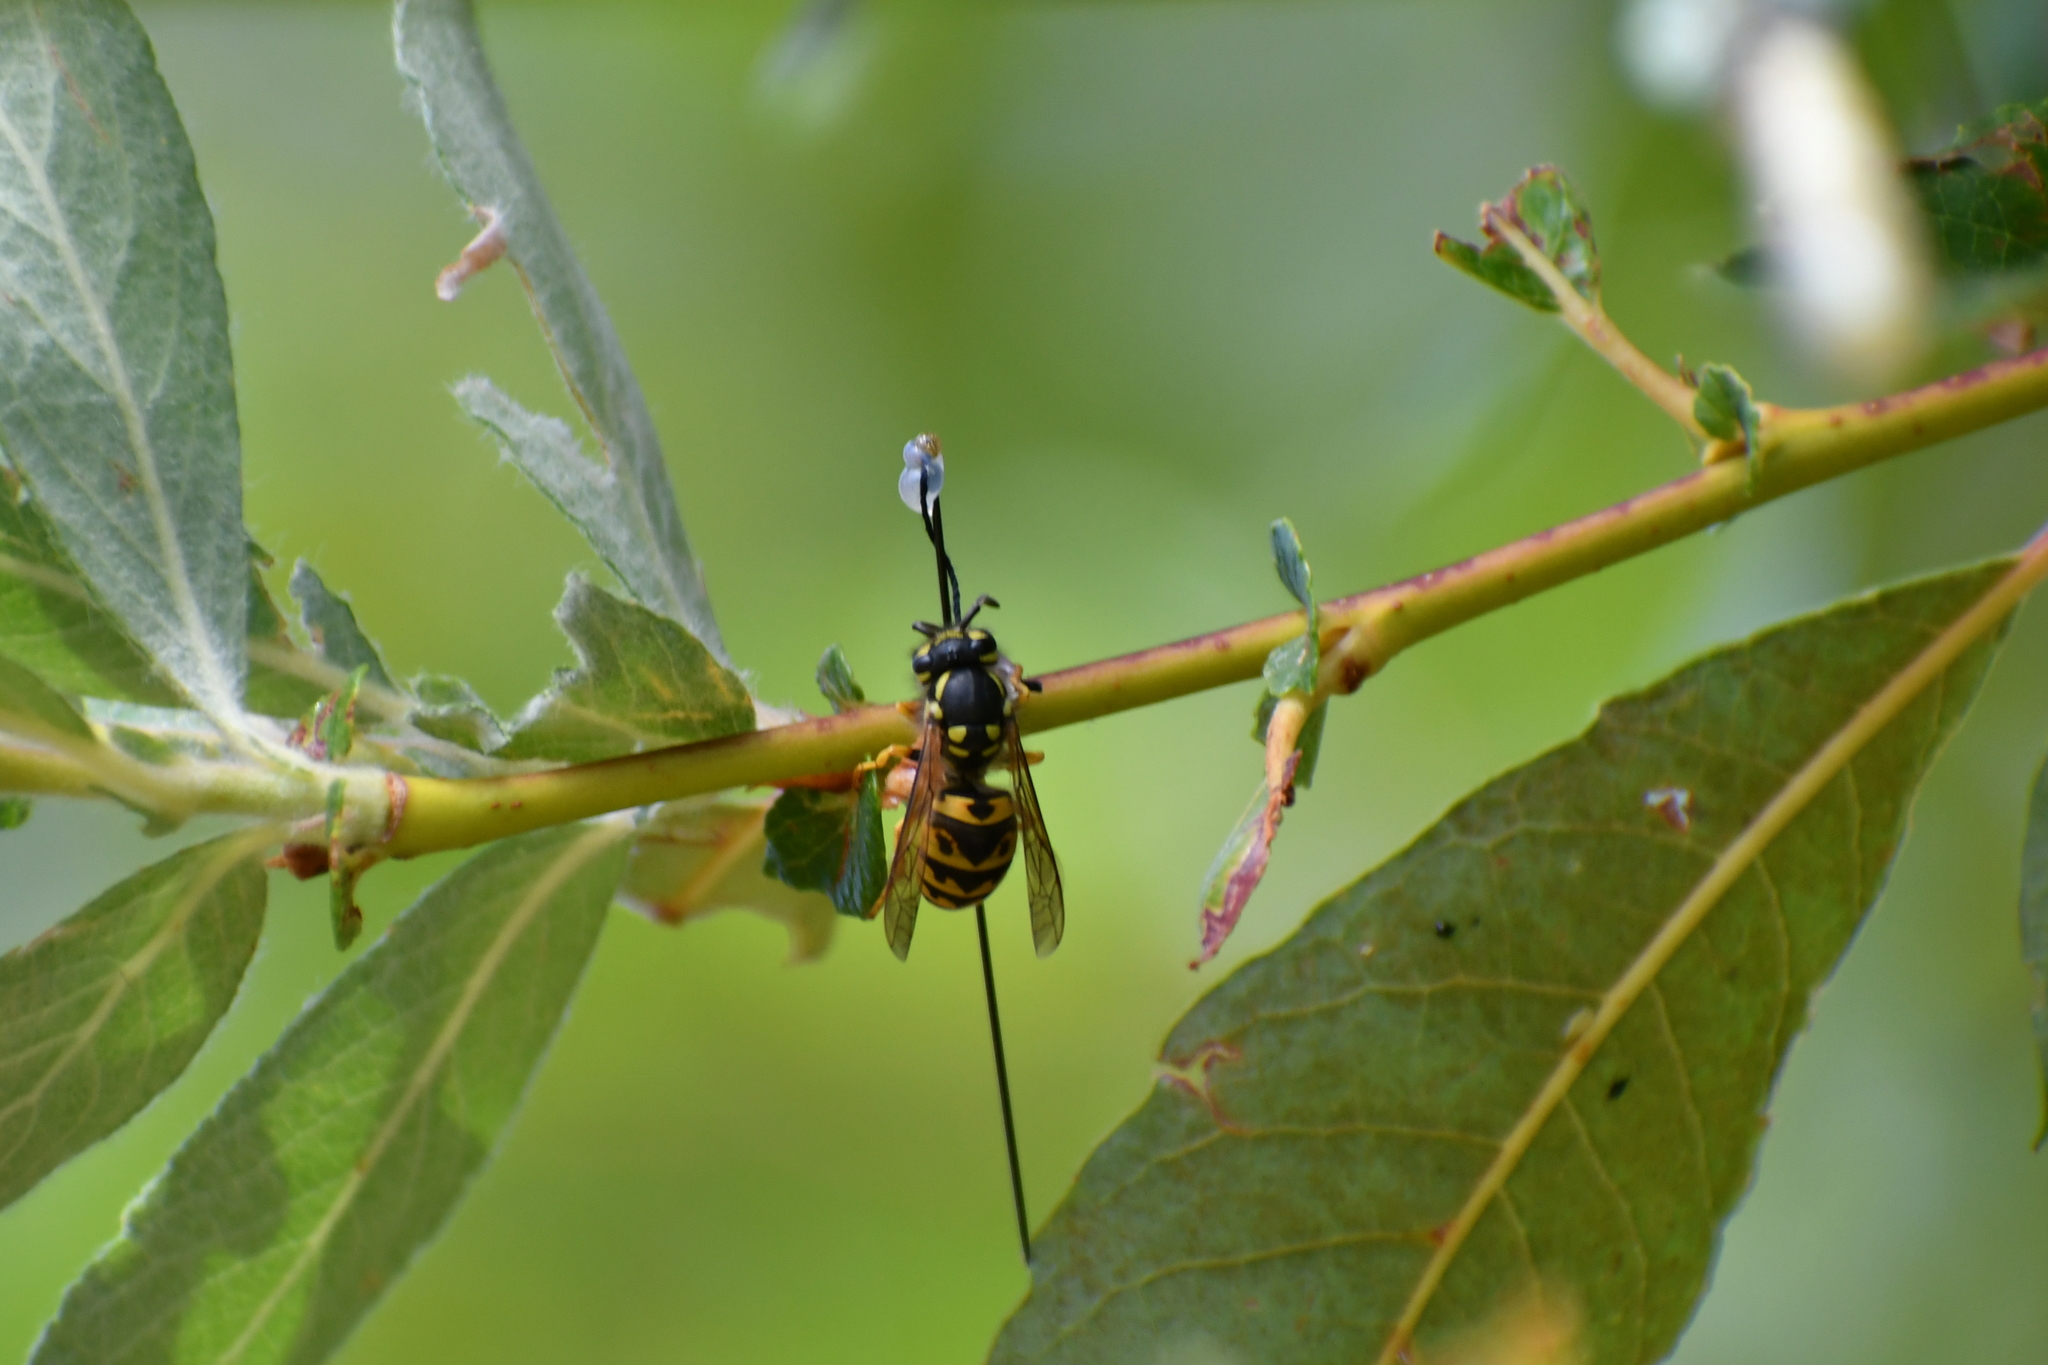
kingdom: Animalia
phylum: Arthropoda
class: Insecta
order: Hymenoptera
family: Vespidae
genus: Vespula
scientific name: Vespula germanica
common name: German wasp
